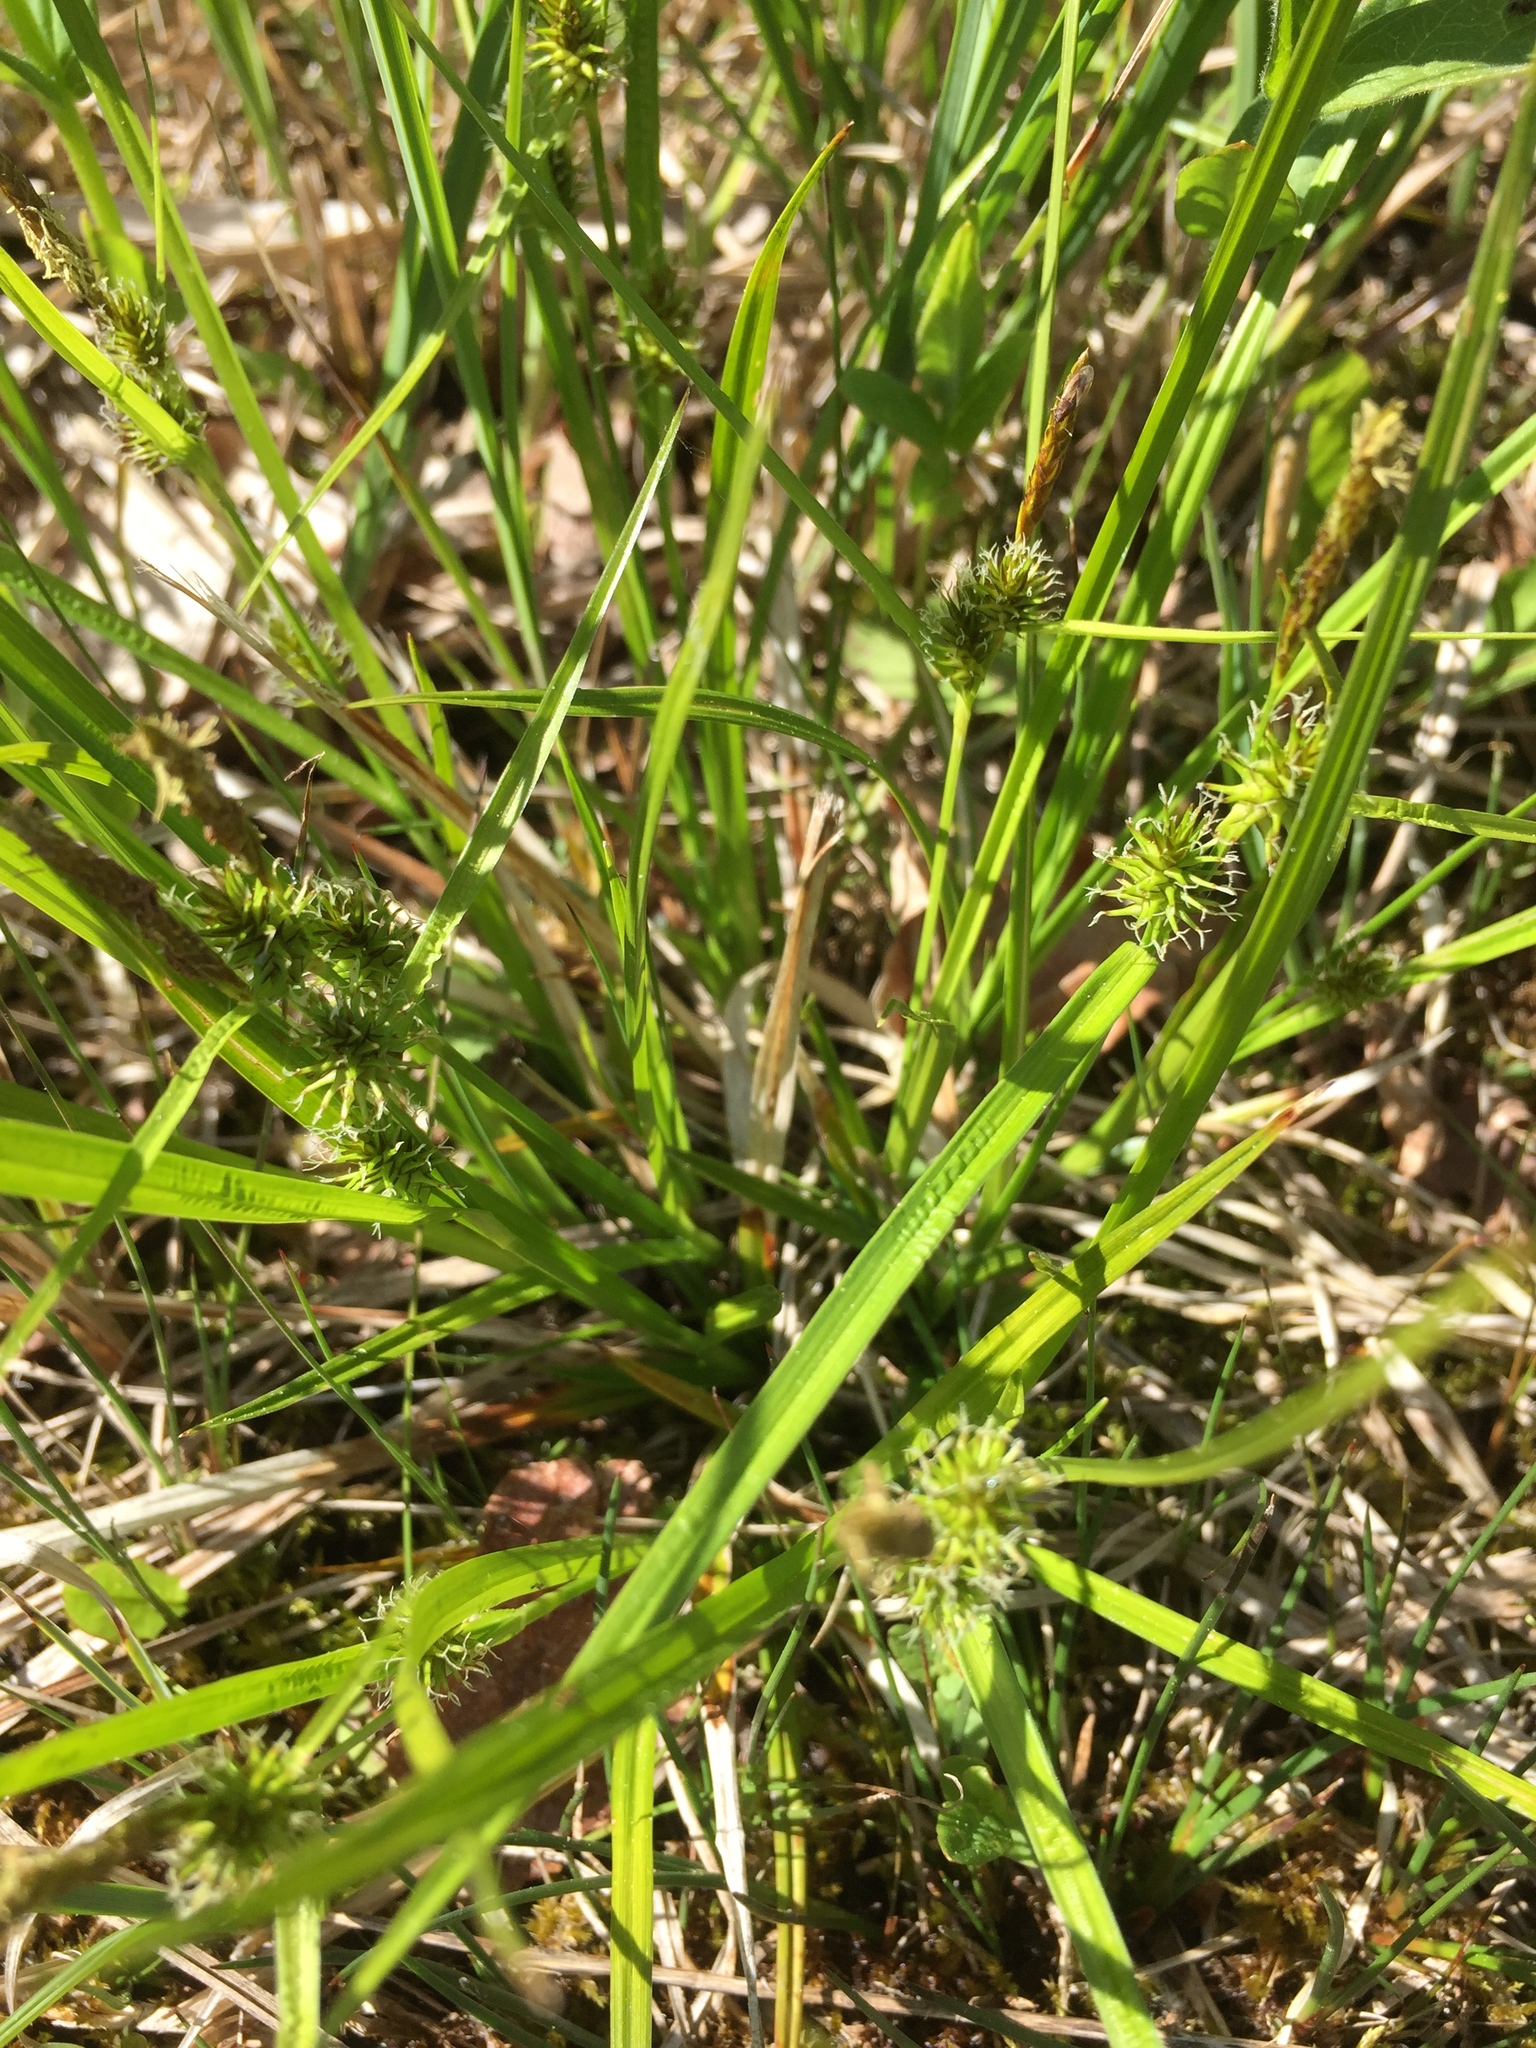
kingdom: Plantae
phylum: Tracheophyta
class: Liliopsida
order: Poales
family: Cyperaceae
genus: Carex
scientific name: Carex flava
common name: Large yellow-sedge
